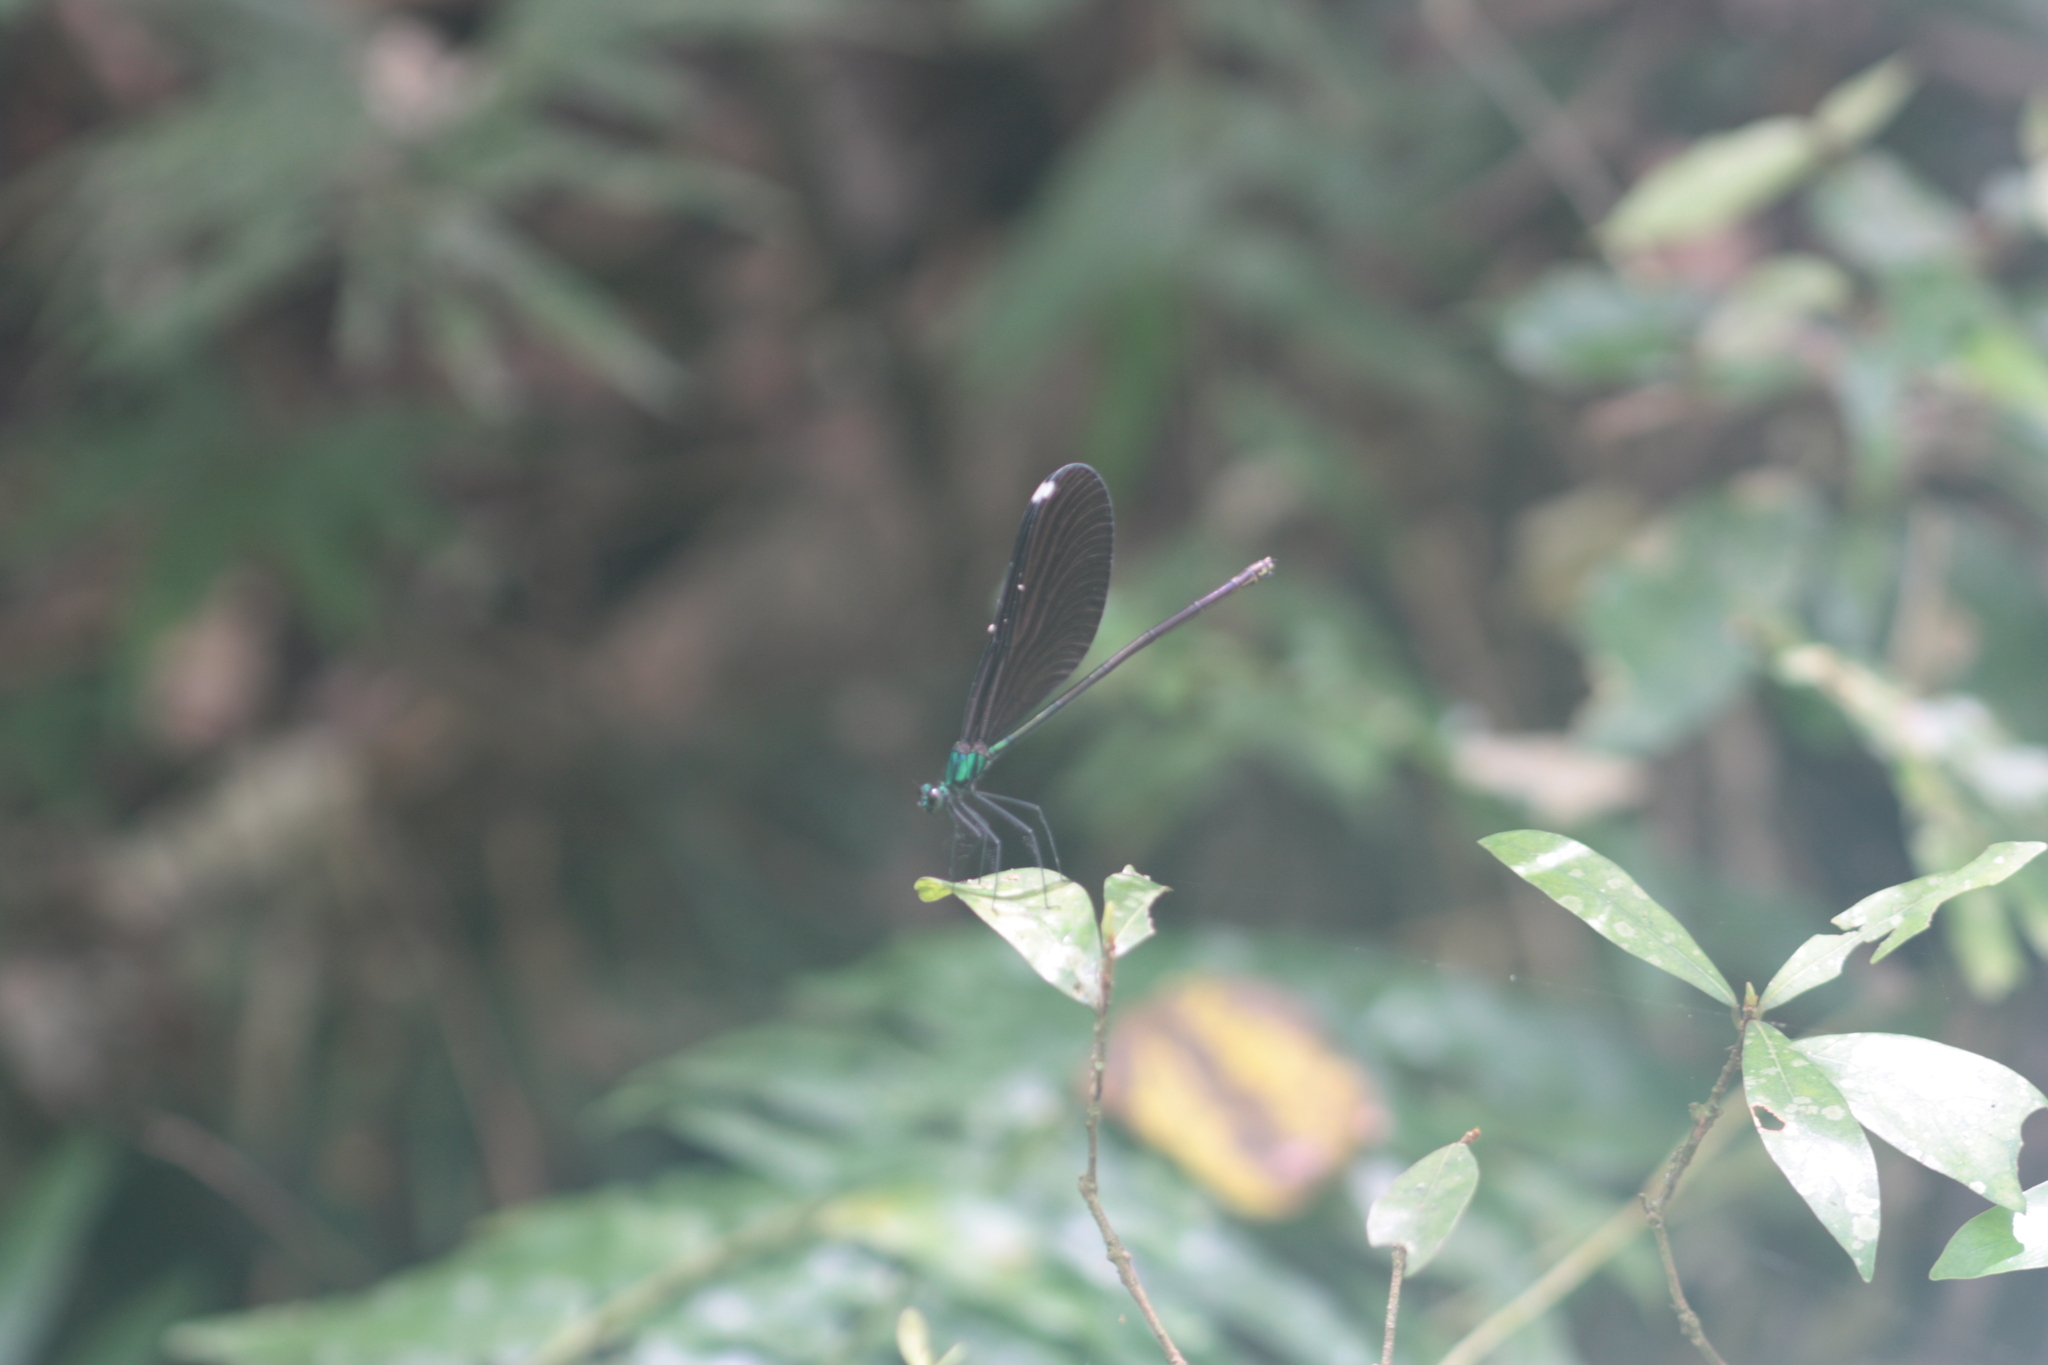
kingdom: Animalia
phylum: Arthropoda
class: Insecta
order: Odonata
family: Calopterygidae
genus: Matrona
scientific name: Matrona cyanoptera
